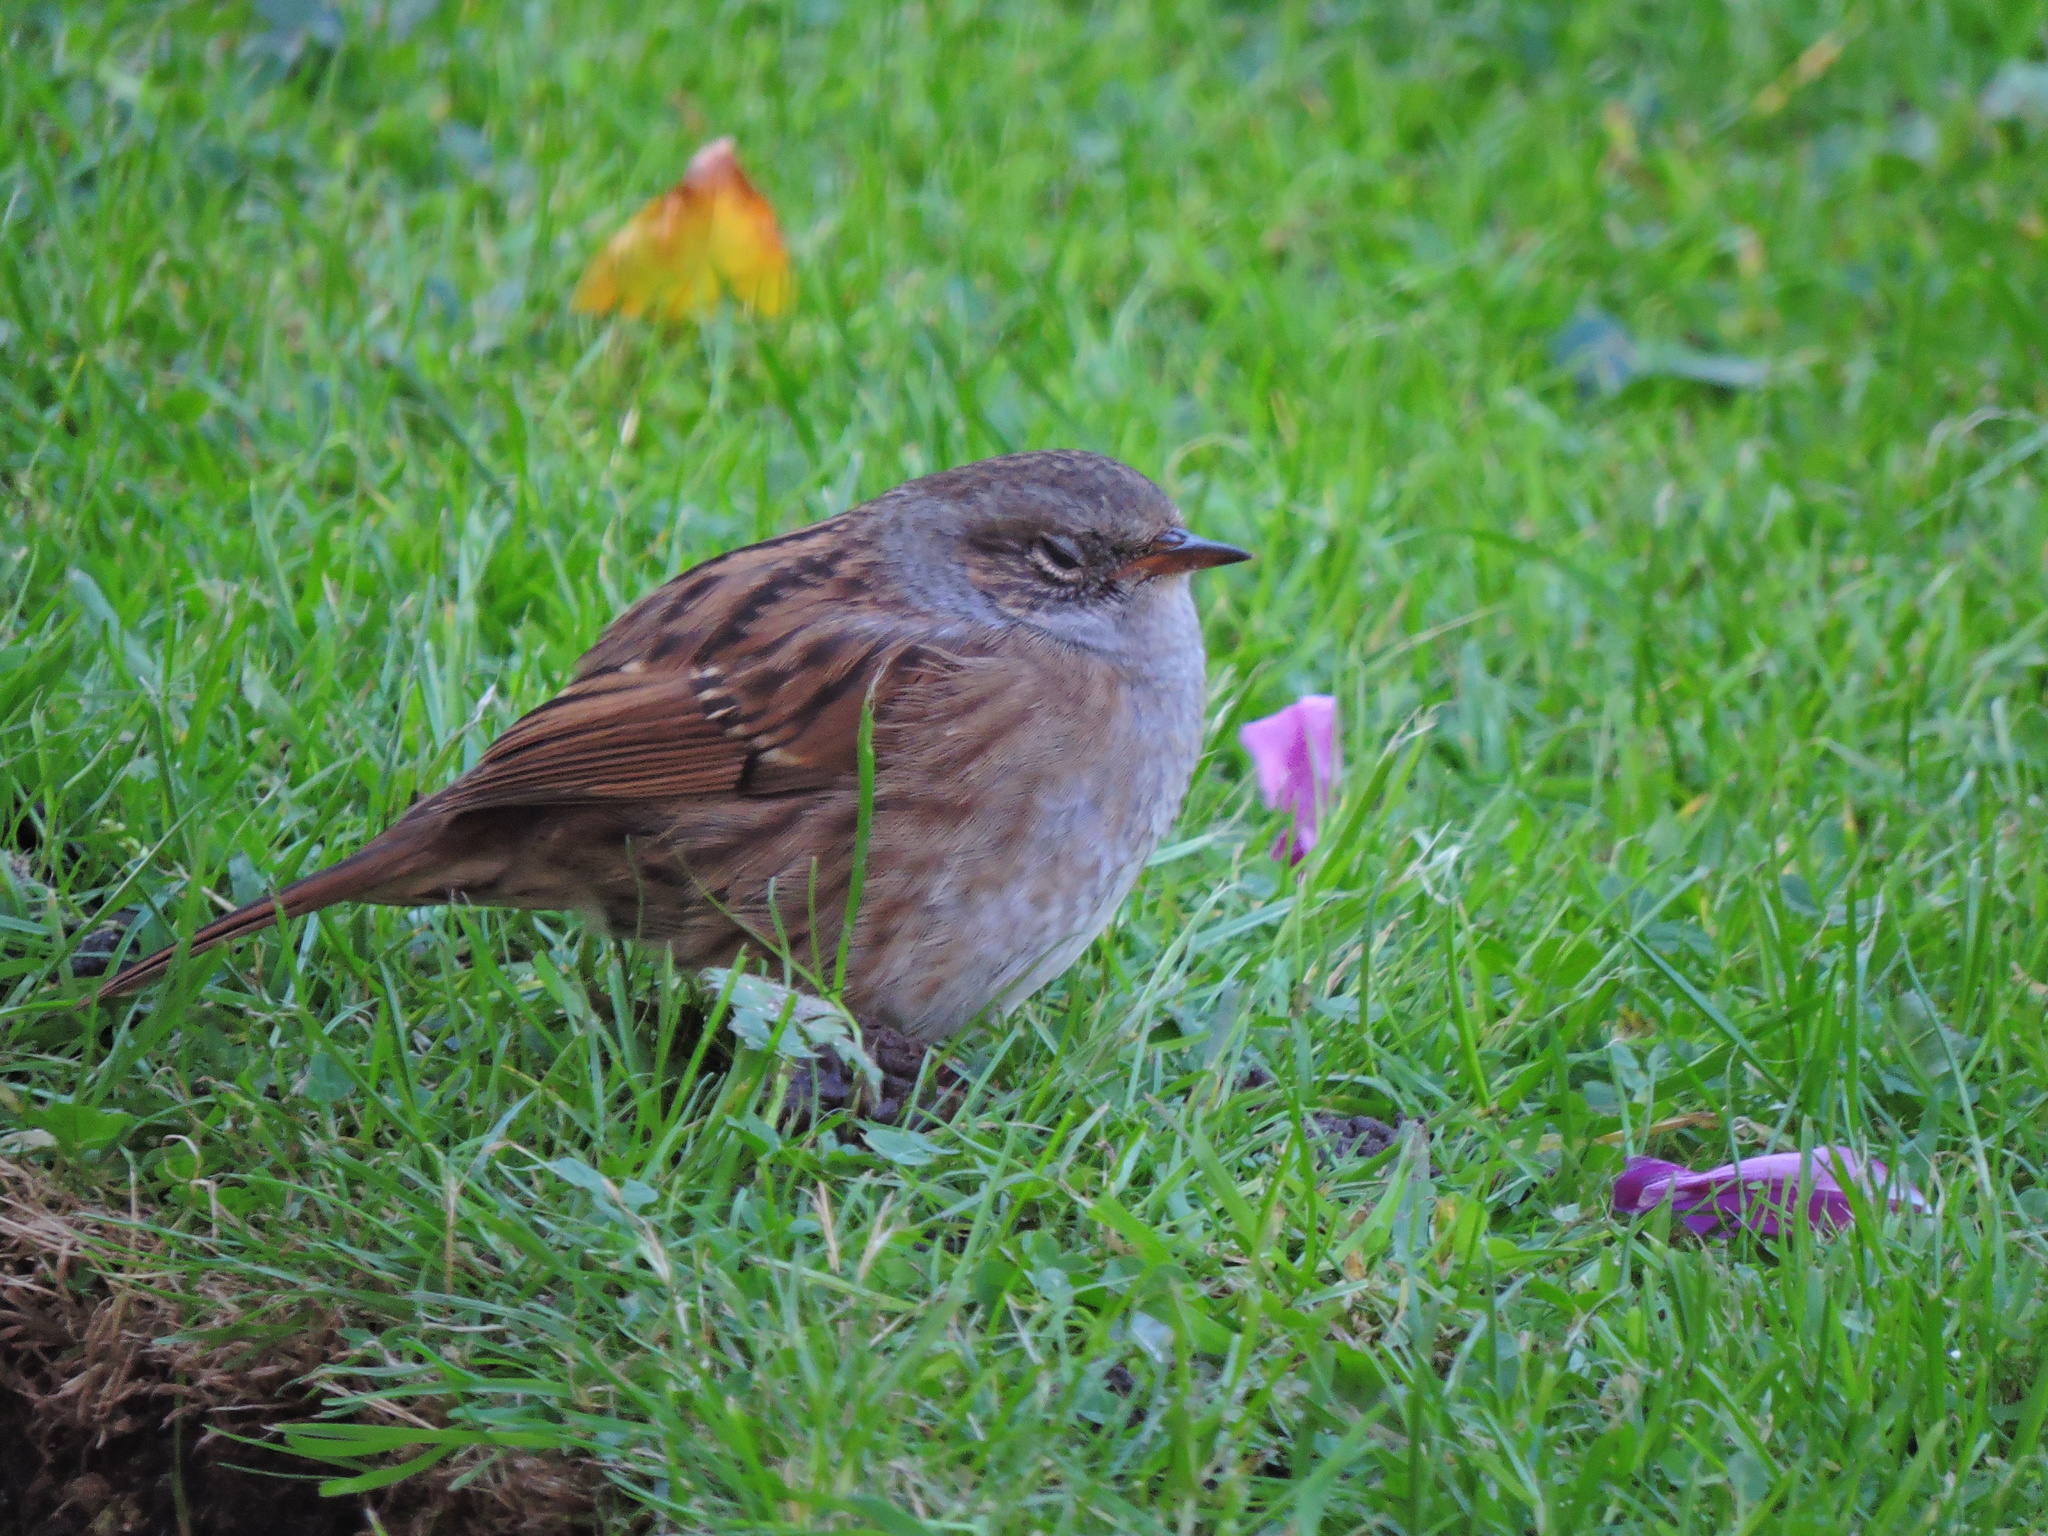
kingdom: Animalia
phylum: Chordata
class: Aves
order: Passeriformes
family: Prunellidae
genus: Prunella
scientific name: Prunella modularis
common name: Dunnock
